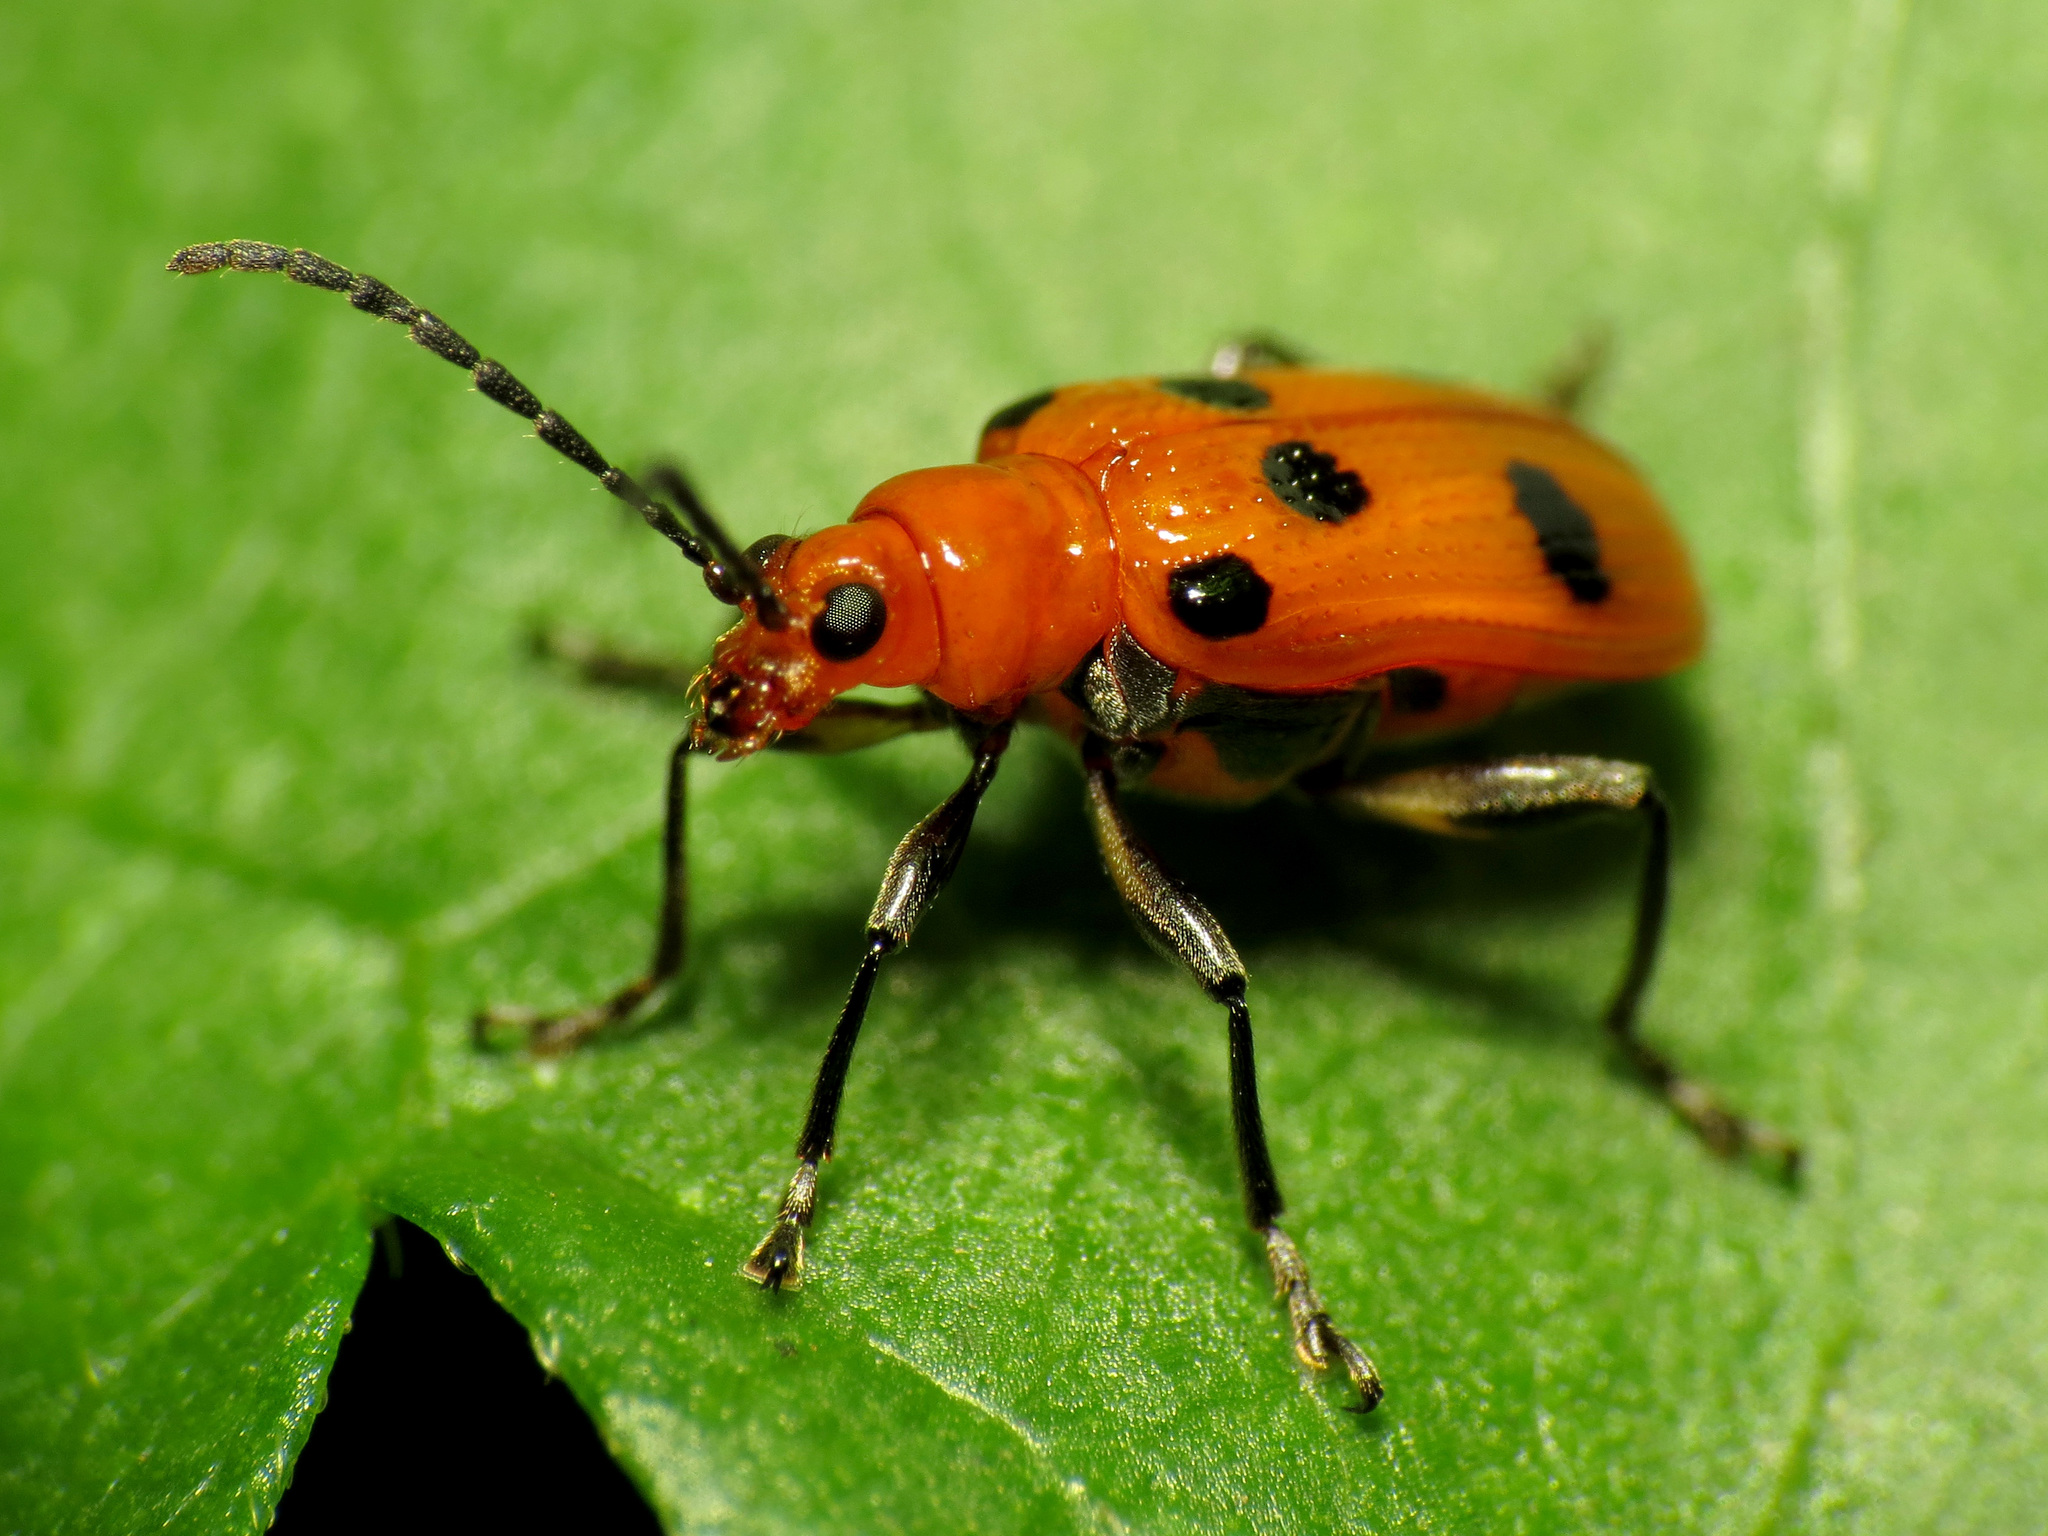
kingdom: Animalia
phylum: Arthropoda
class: Insecta
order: Coleoptera
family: Chrysomelidae
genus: Neolema
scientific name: Neolema sexpunctata
